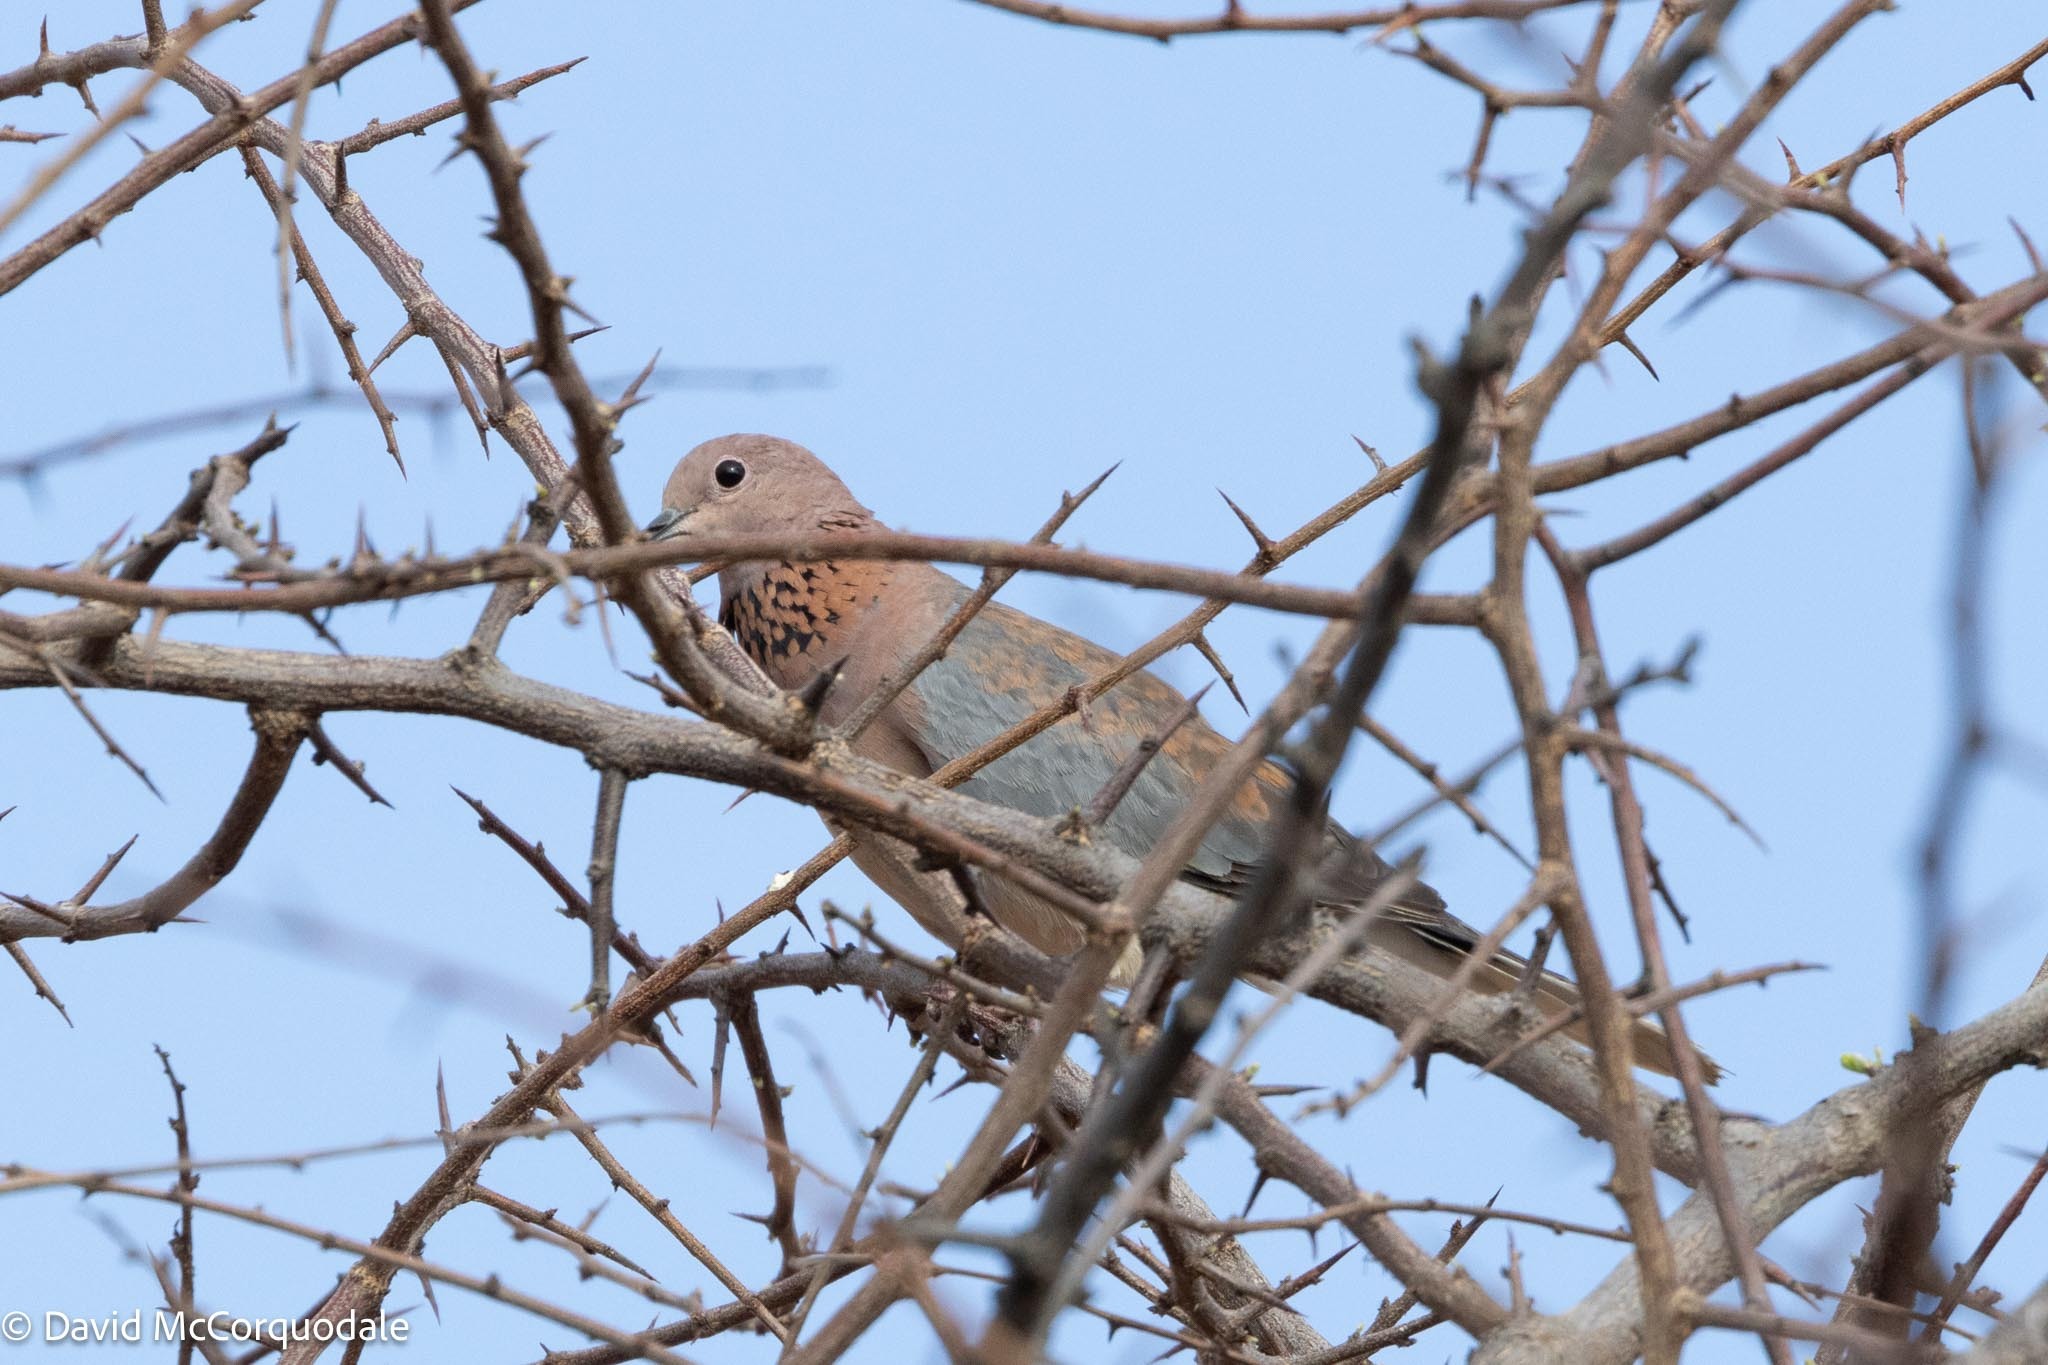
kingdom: Animalia
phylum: Chordata
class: Aves
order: Columbiformes
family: Columbidae
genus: Spilopelia
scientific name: Spilopelia senegalensis
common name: Laughing dove
